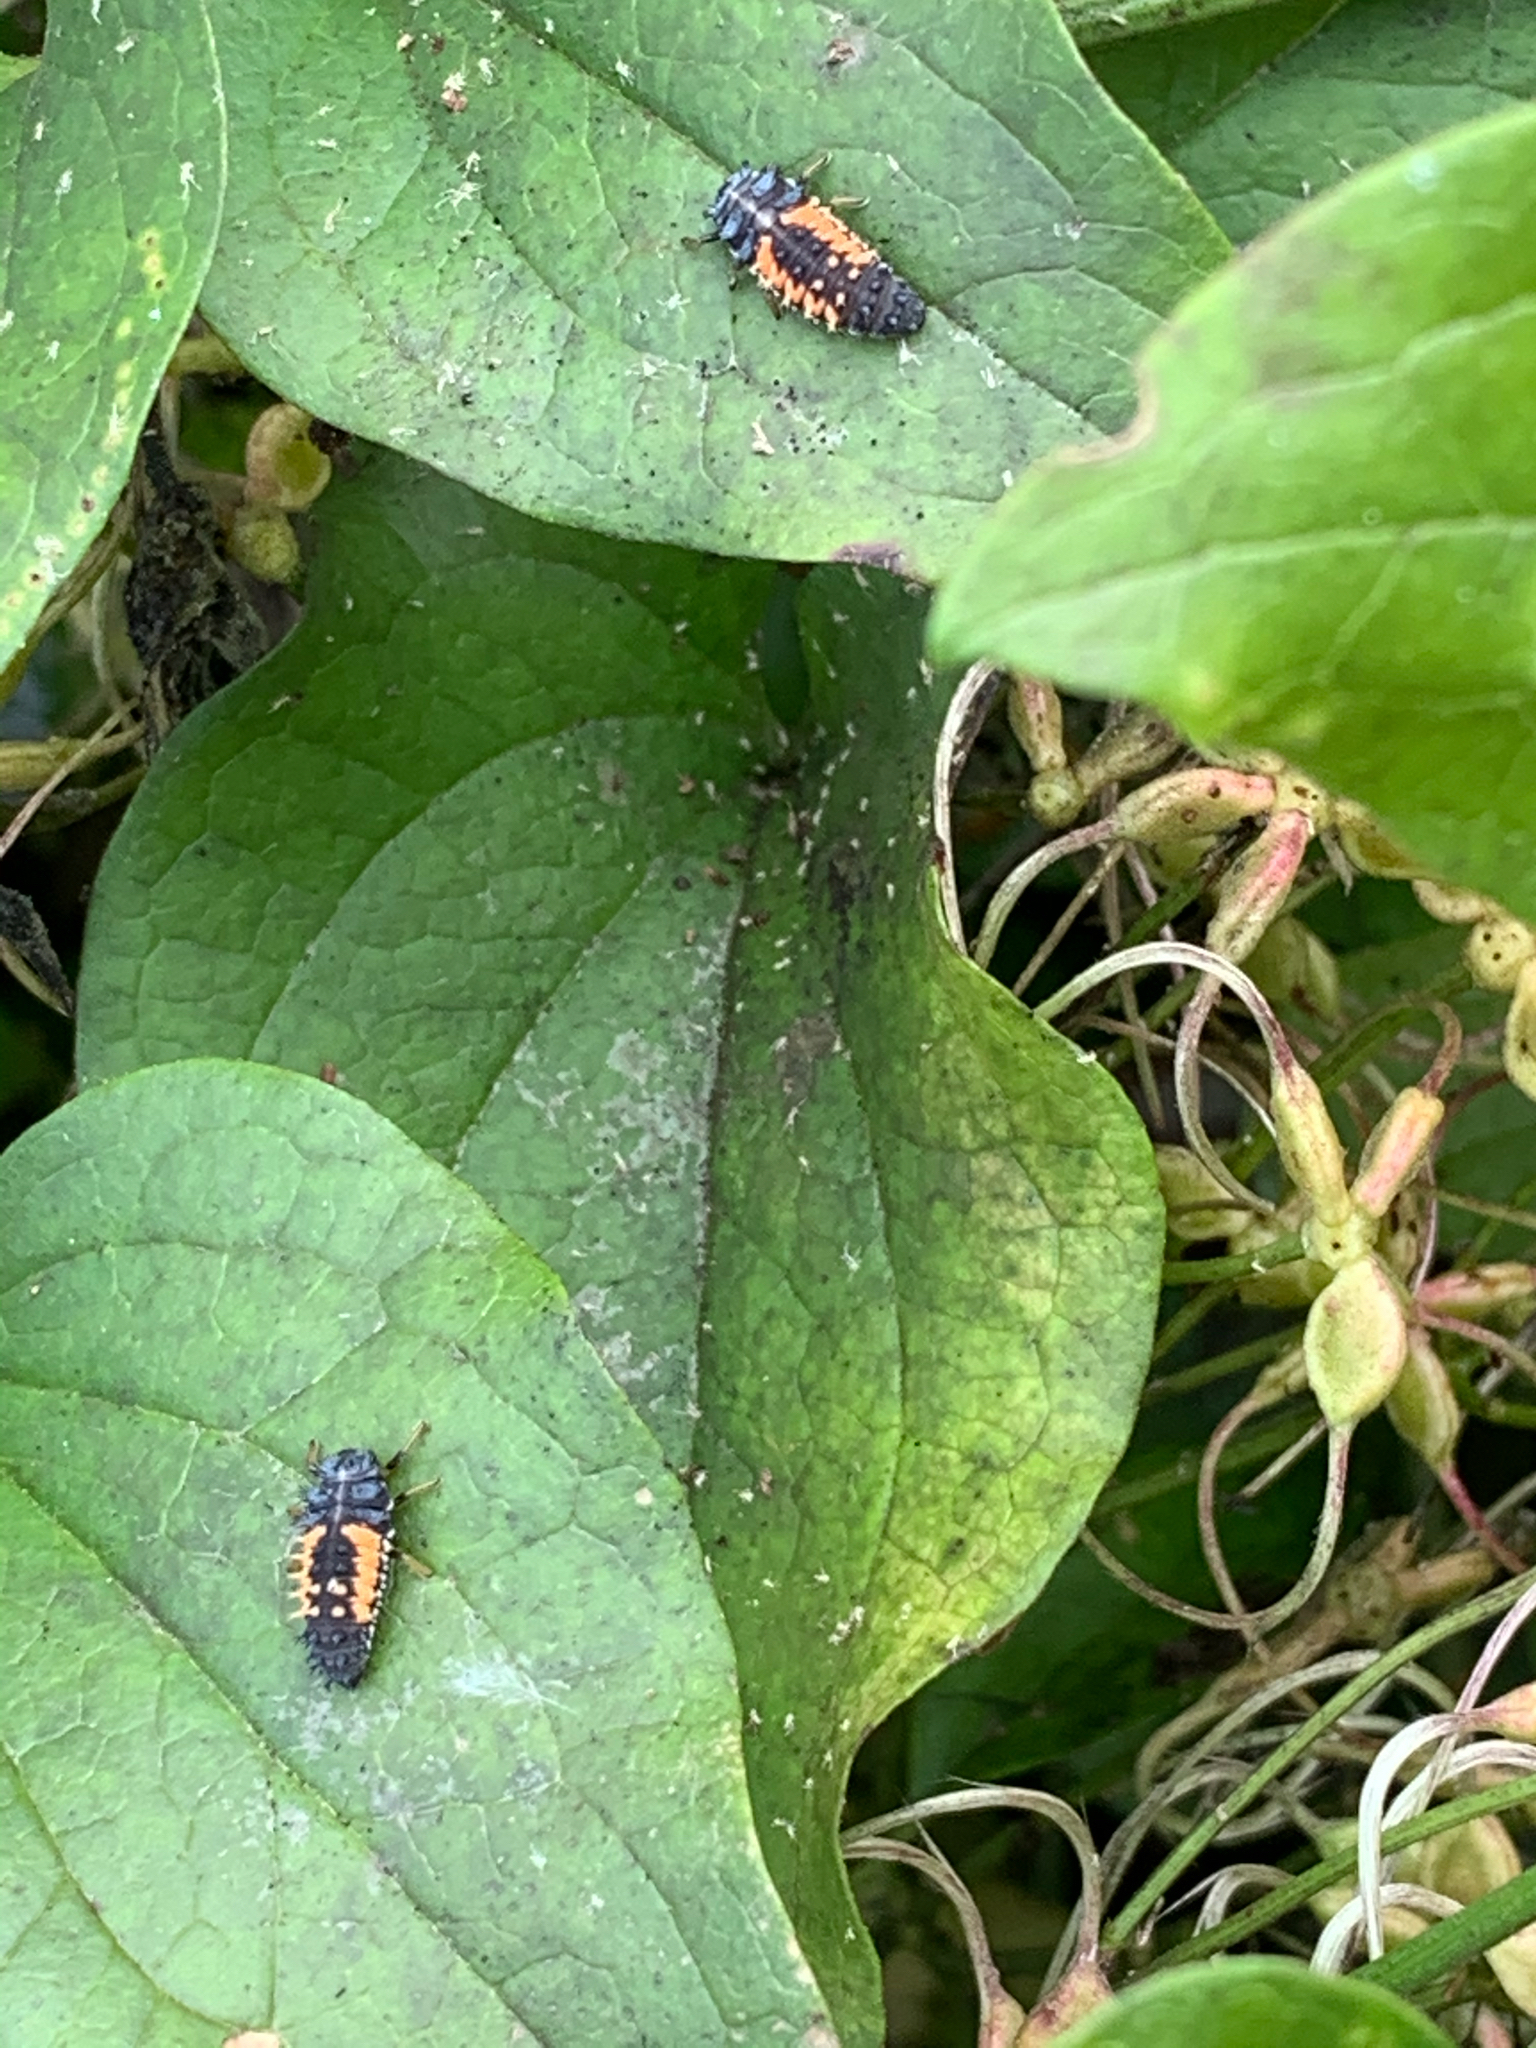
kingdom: Animalia
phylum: Arthropoda
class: Insecta
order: Coleoptera
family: Coccinellidae
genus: Harmonia
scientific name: Harmonia axyridis
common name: Harlequin ladybird
